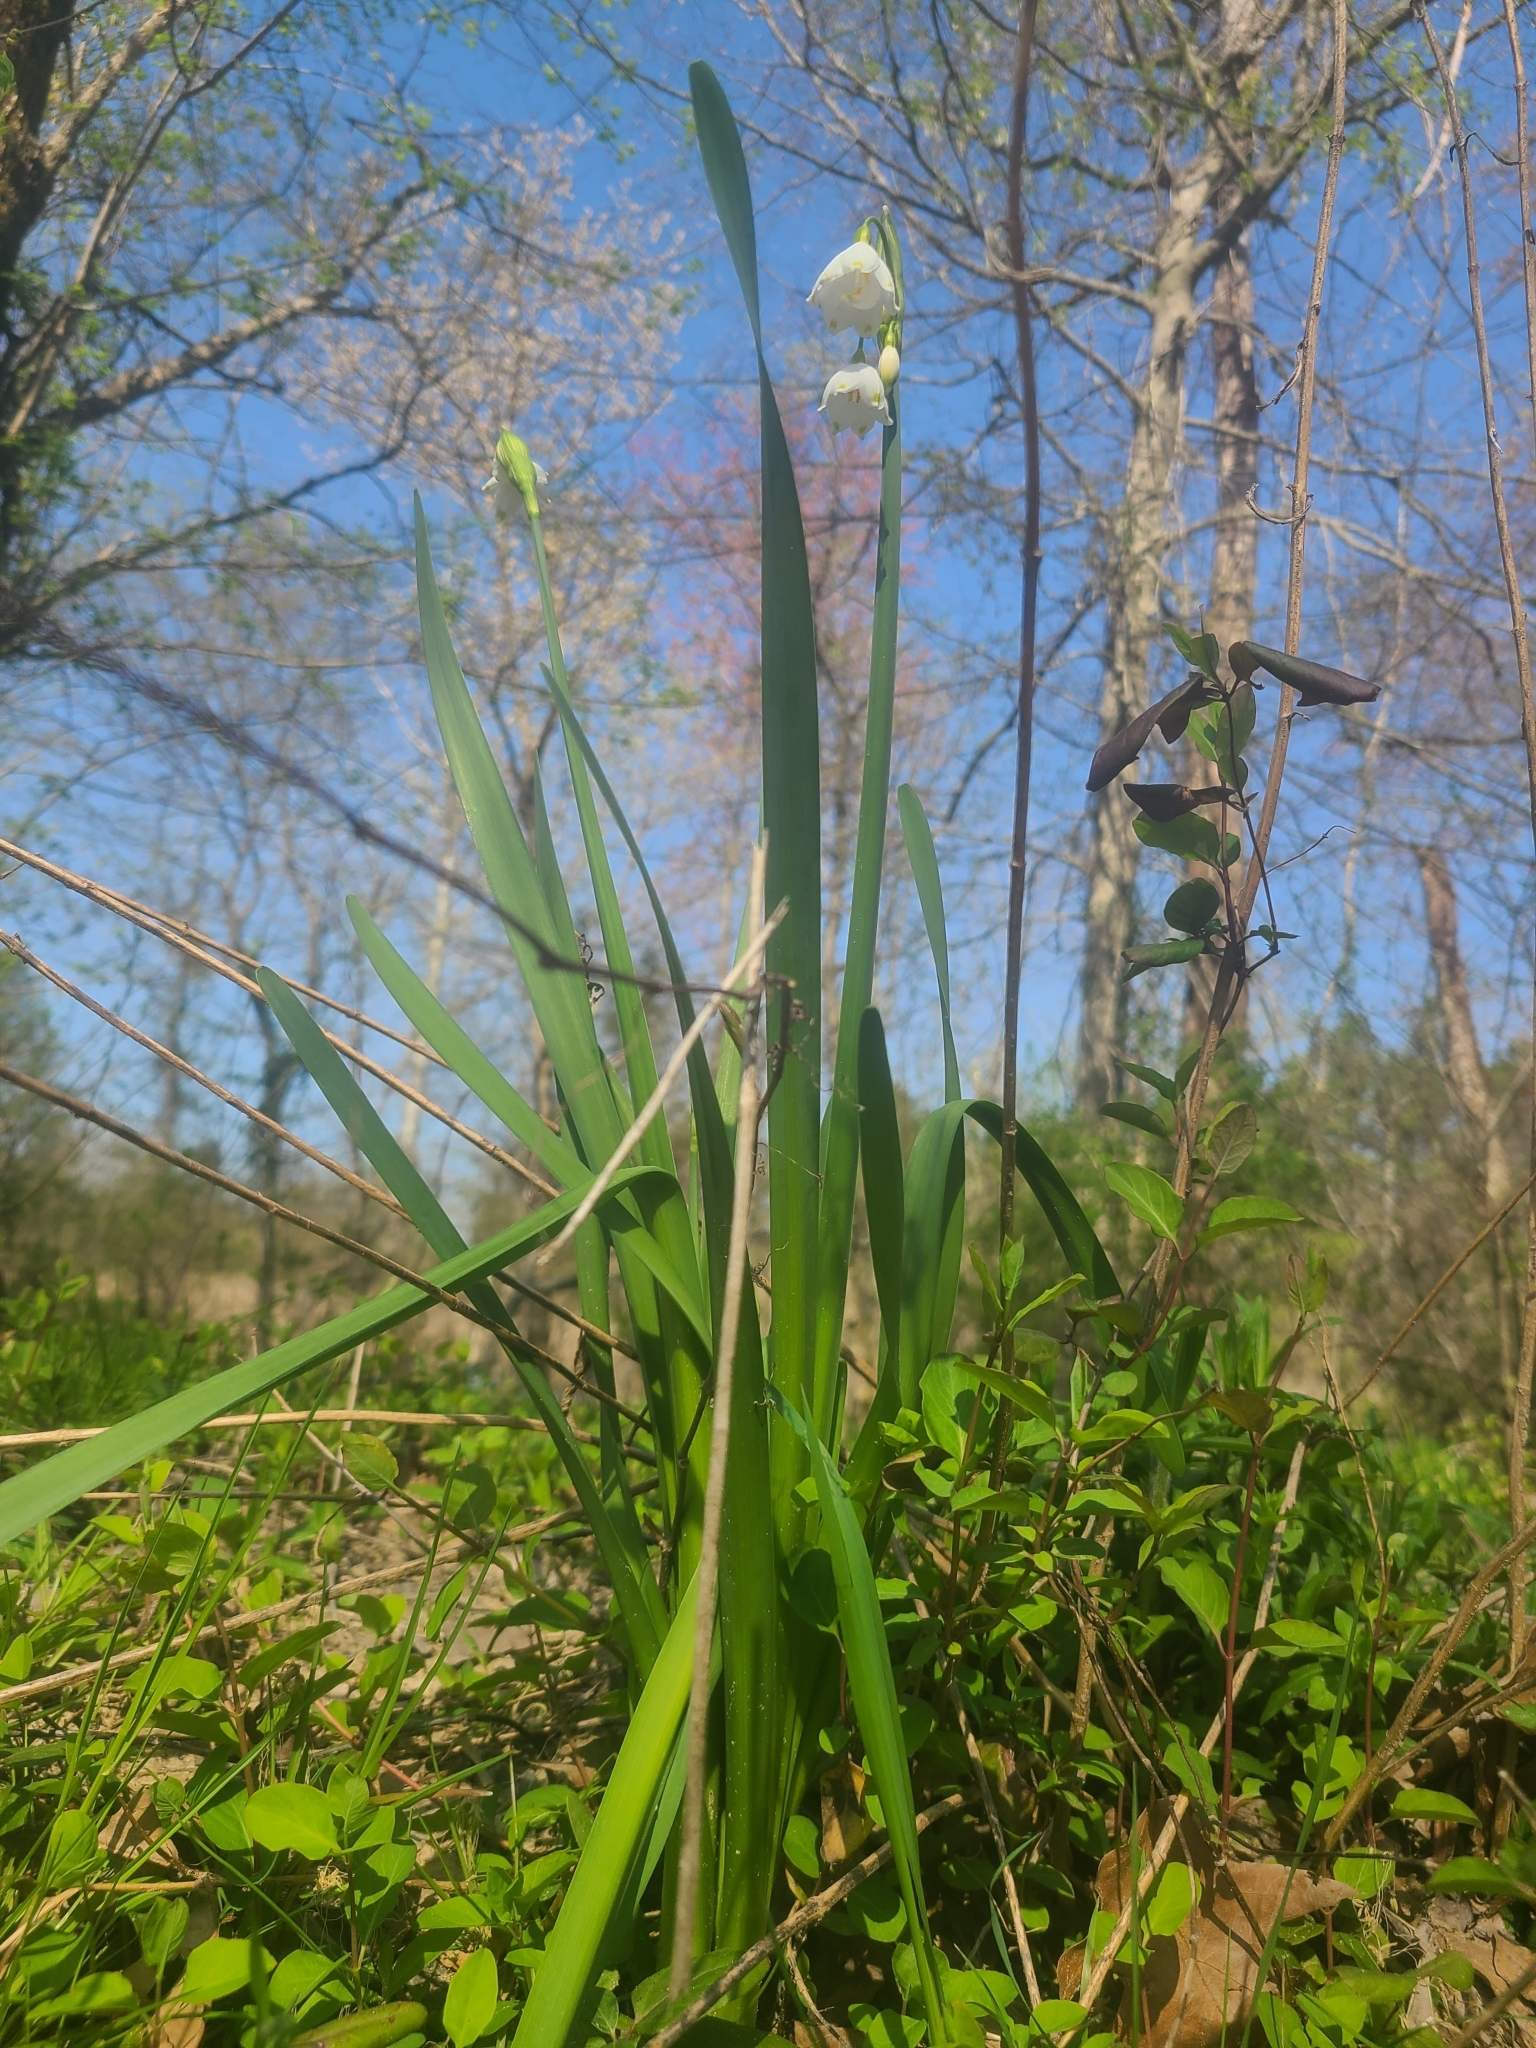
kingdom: Plantae
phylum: Tracheophyta
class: Liliopsida
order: Asparagales
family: Amaryllidaceae
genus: Leucojum
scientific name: Leucojum aestivum
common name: Summer snowflake
